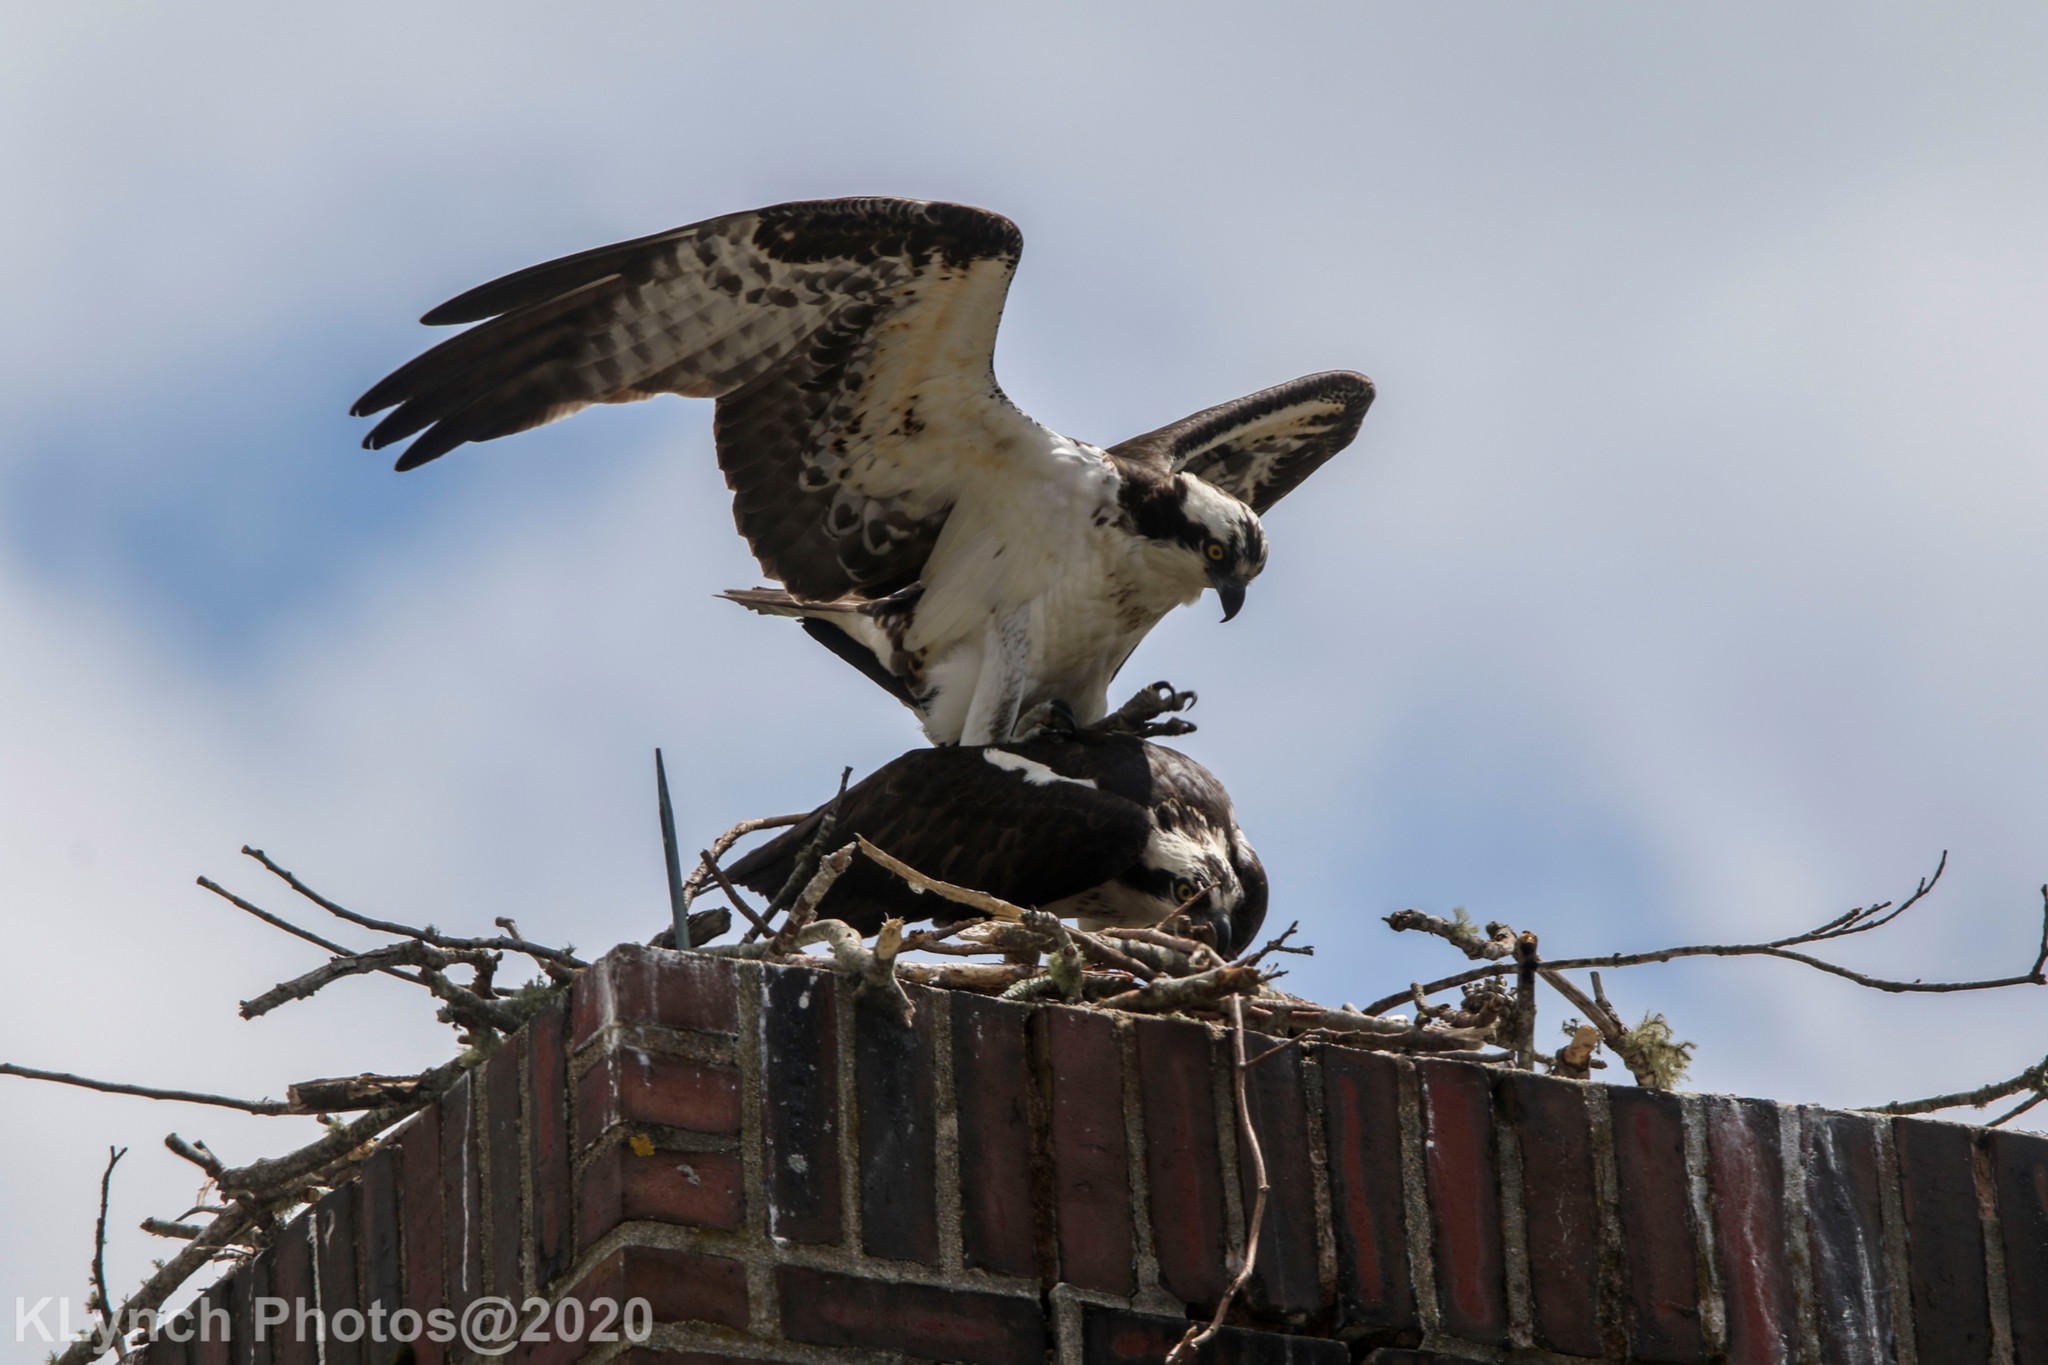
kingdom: Animalia
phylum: Chordata
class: Aves
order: Accipitriformes
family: Pandionidae
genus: Pandion
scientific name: Pandion haliaetus
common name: Osprey
